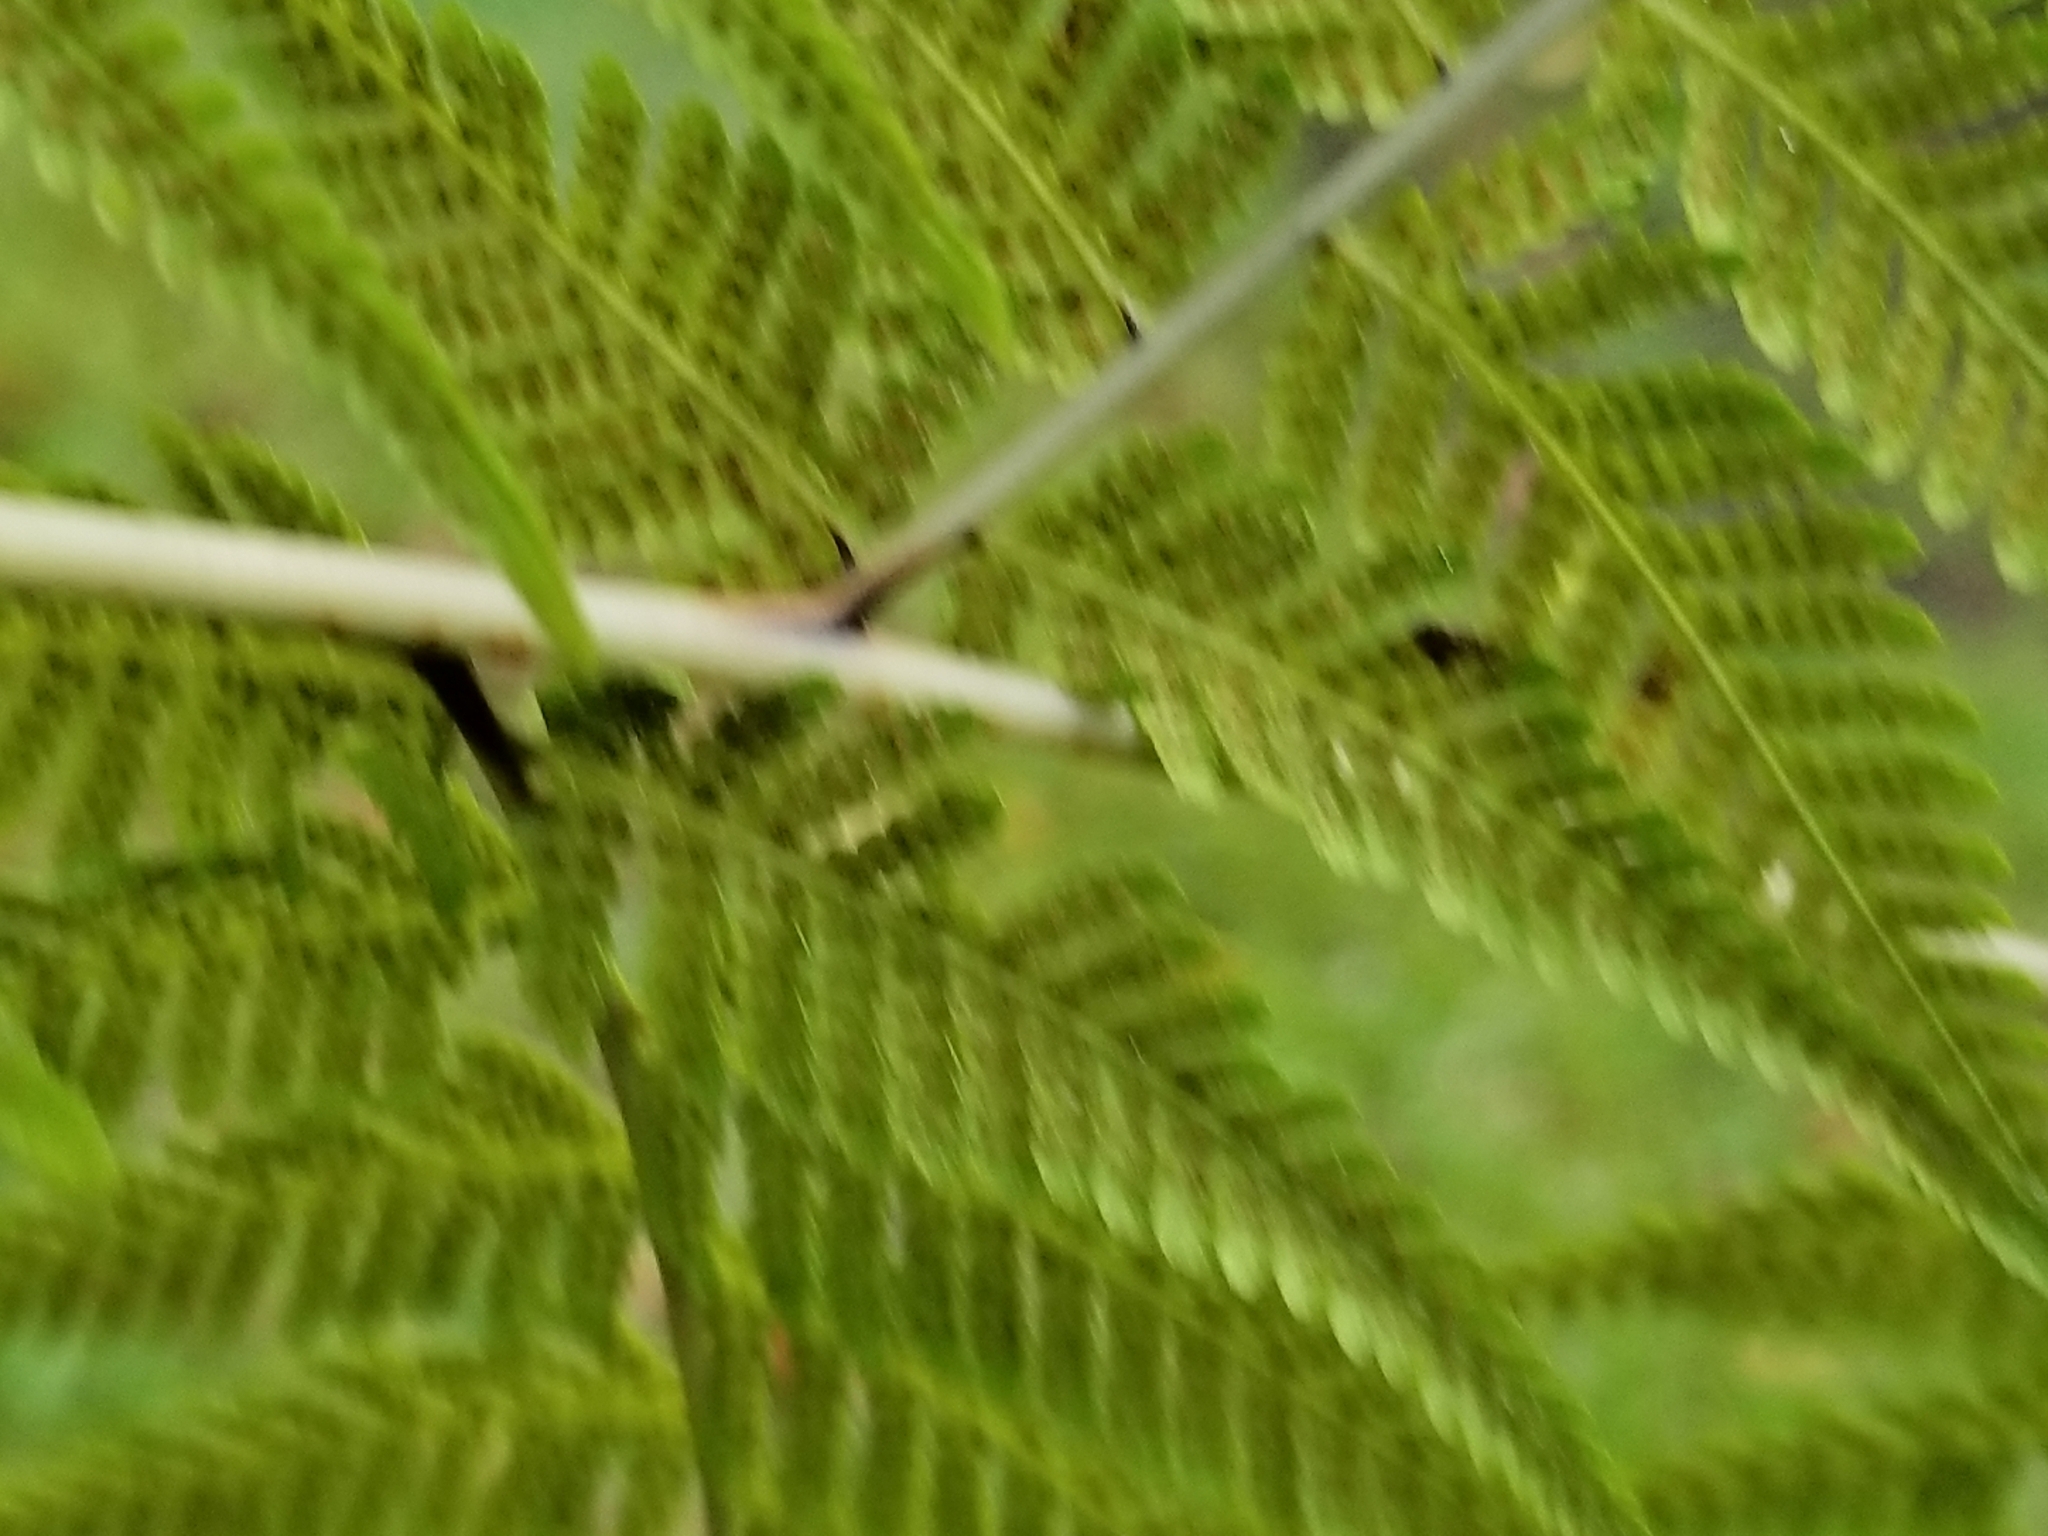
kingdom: Plantae
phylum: Tracheophyta
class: Polypodiopsida
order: Polypodiales
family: Thelypteridaceae
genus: Macrothelypteris
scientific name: Macrothelypteris torresiana
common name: Swordfern
